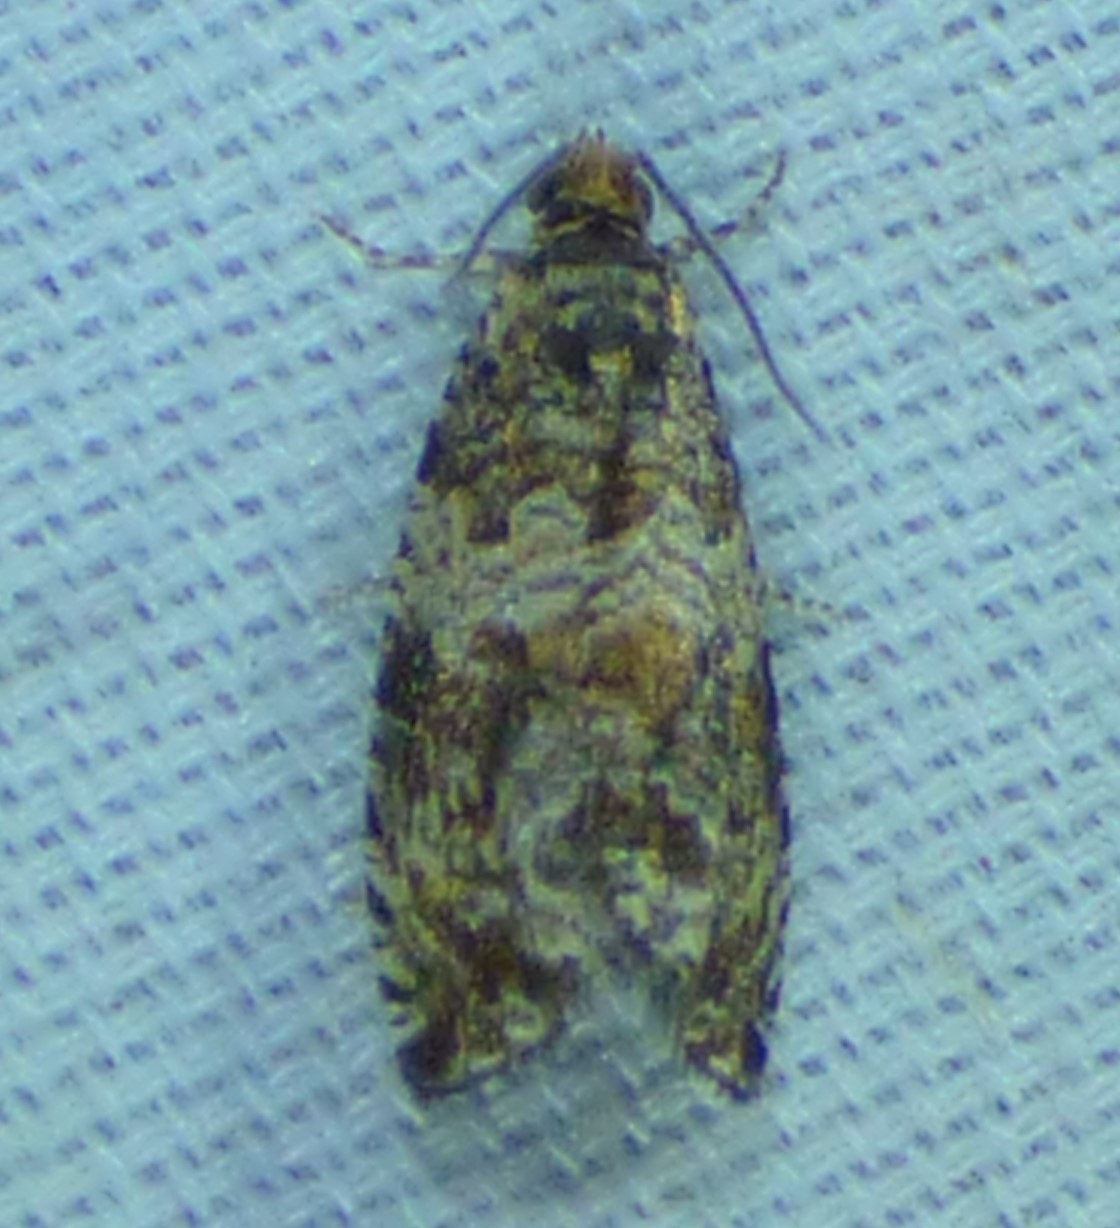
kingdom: Animalia
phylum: Arthropoda
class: Insecta
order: Lepidoptera
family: Tortricidae
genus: Celypha
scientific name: Celypha cespitana
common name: Thyme marble
